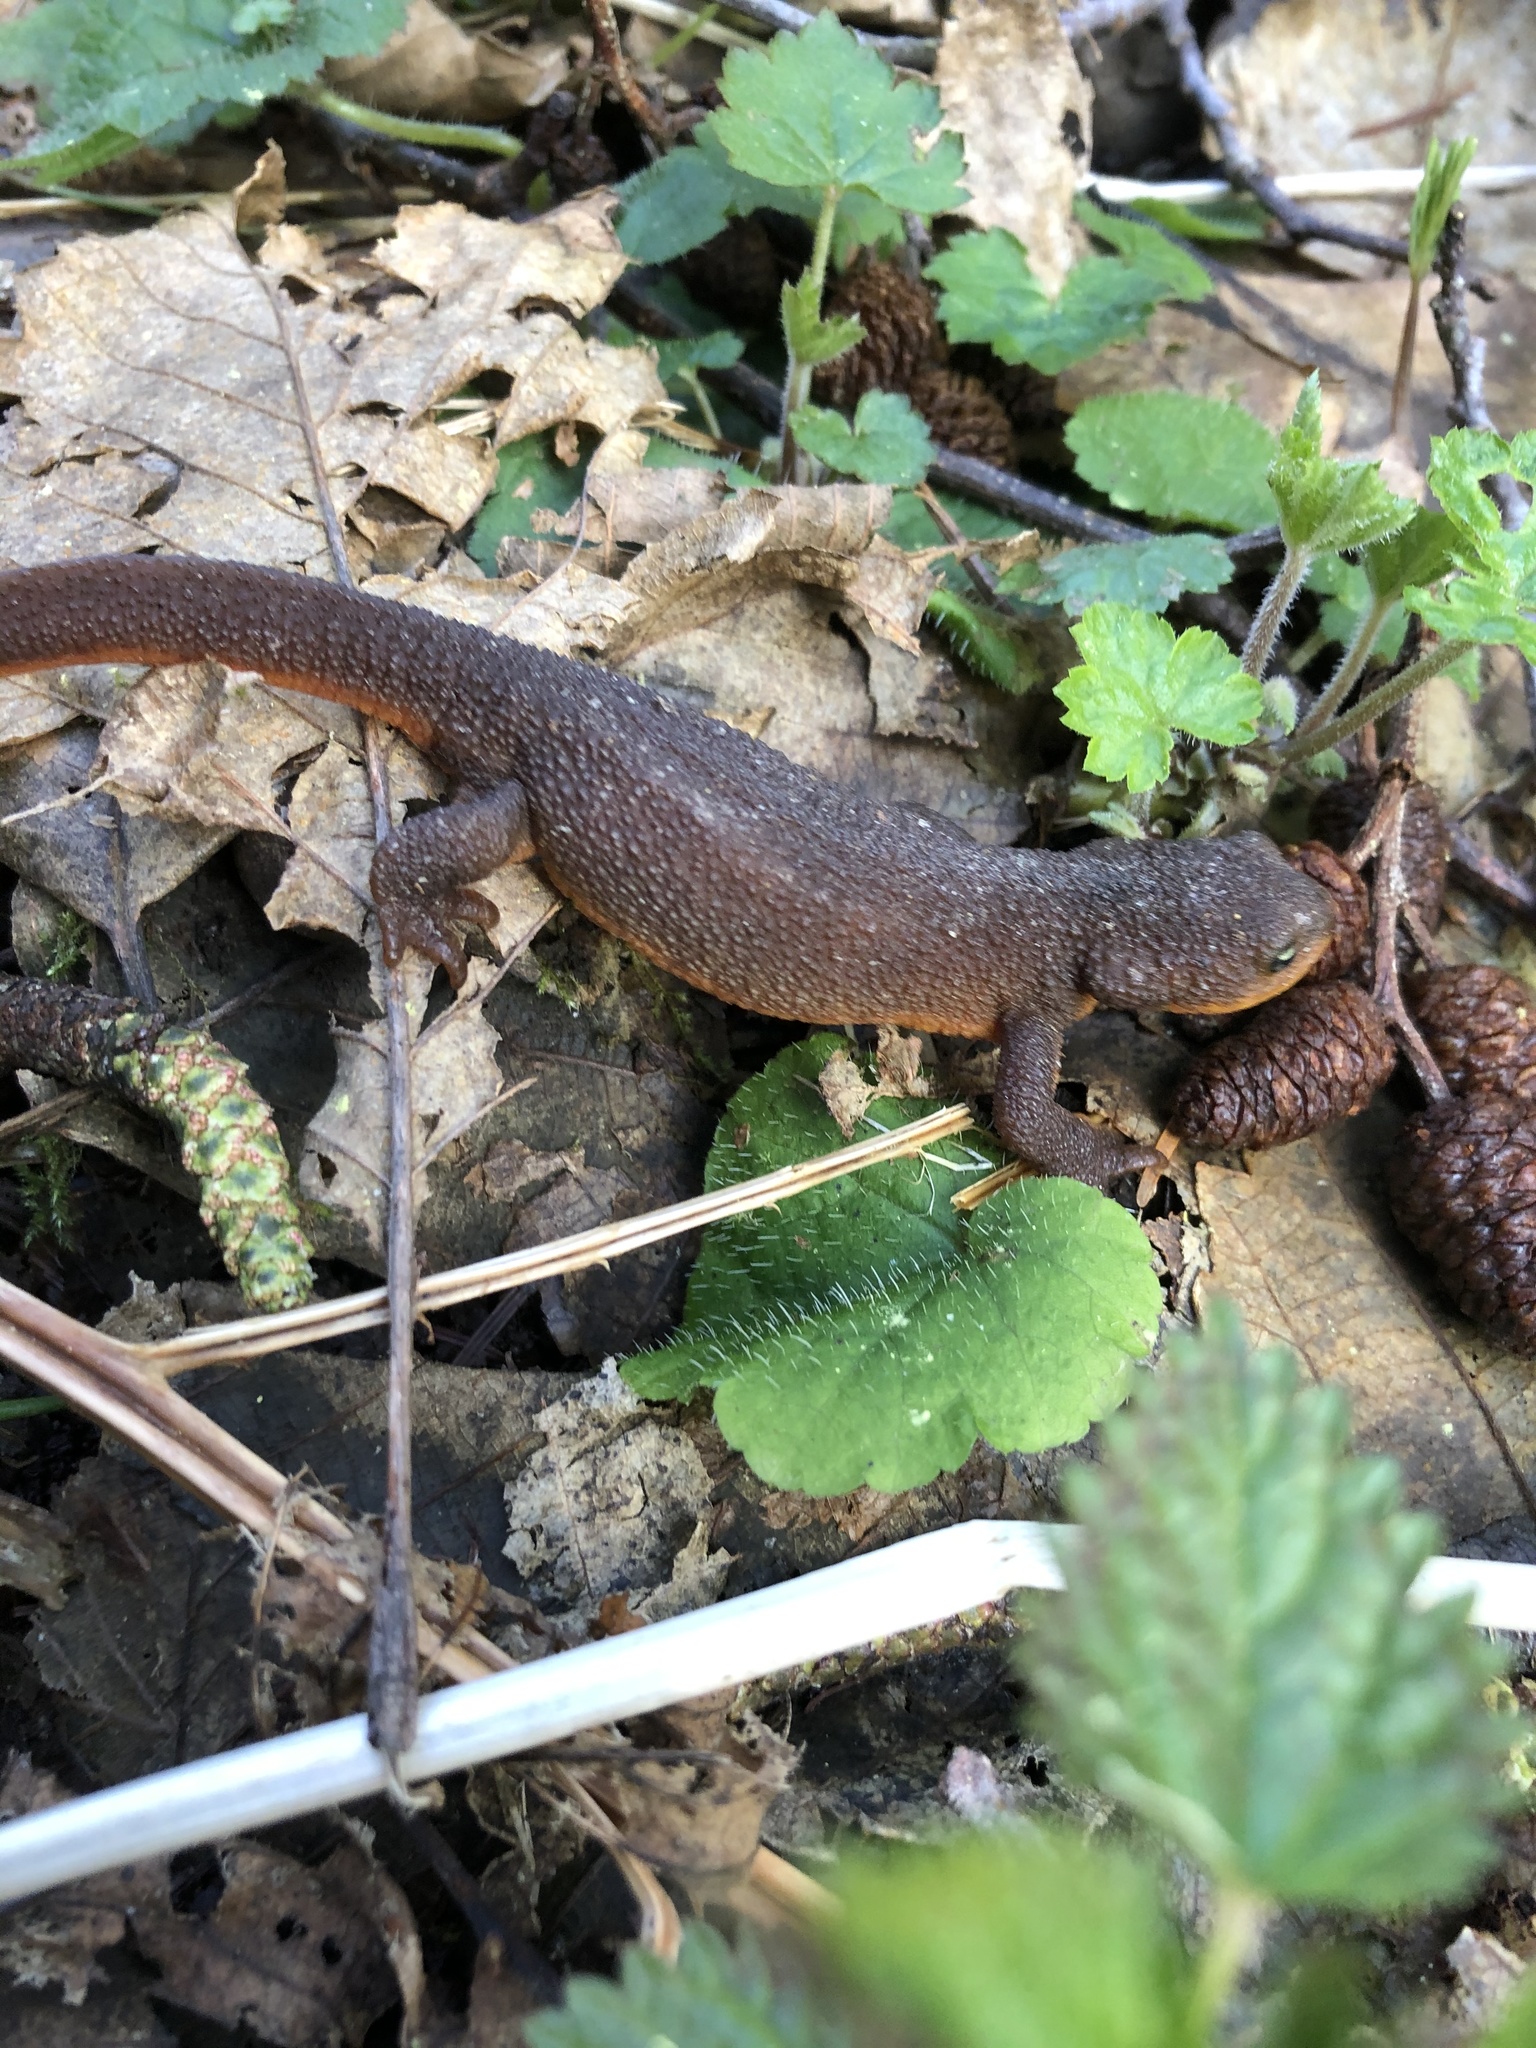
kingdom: Animalia
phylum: Chordata
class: Amphibia
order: Caudata
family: Salamandridae
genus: Taricha
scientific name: Taricha granulosa
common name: Roughskin newt
